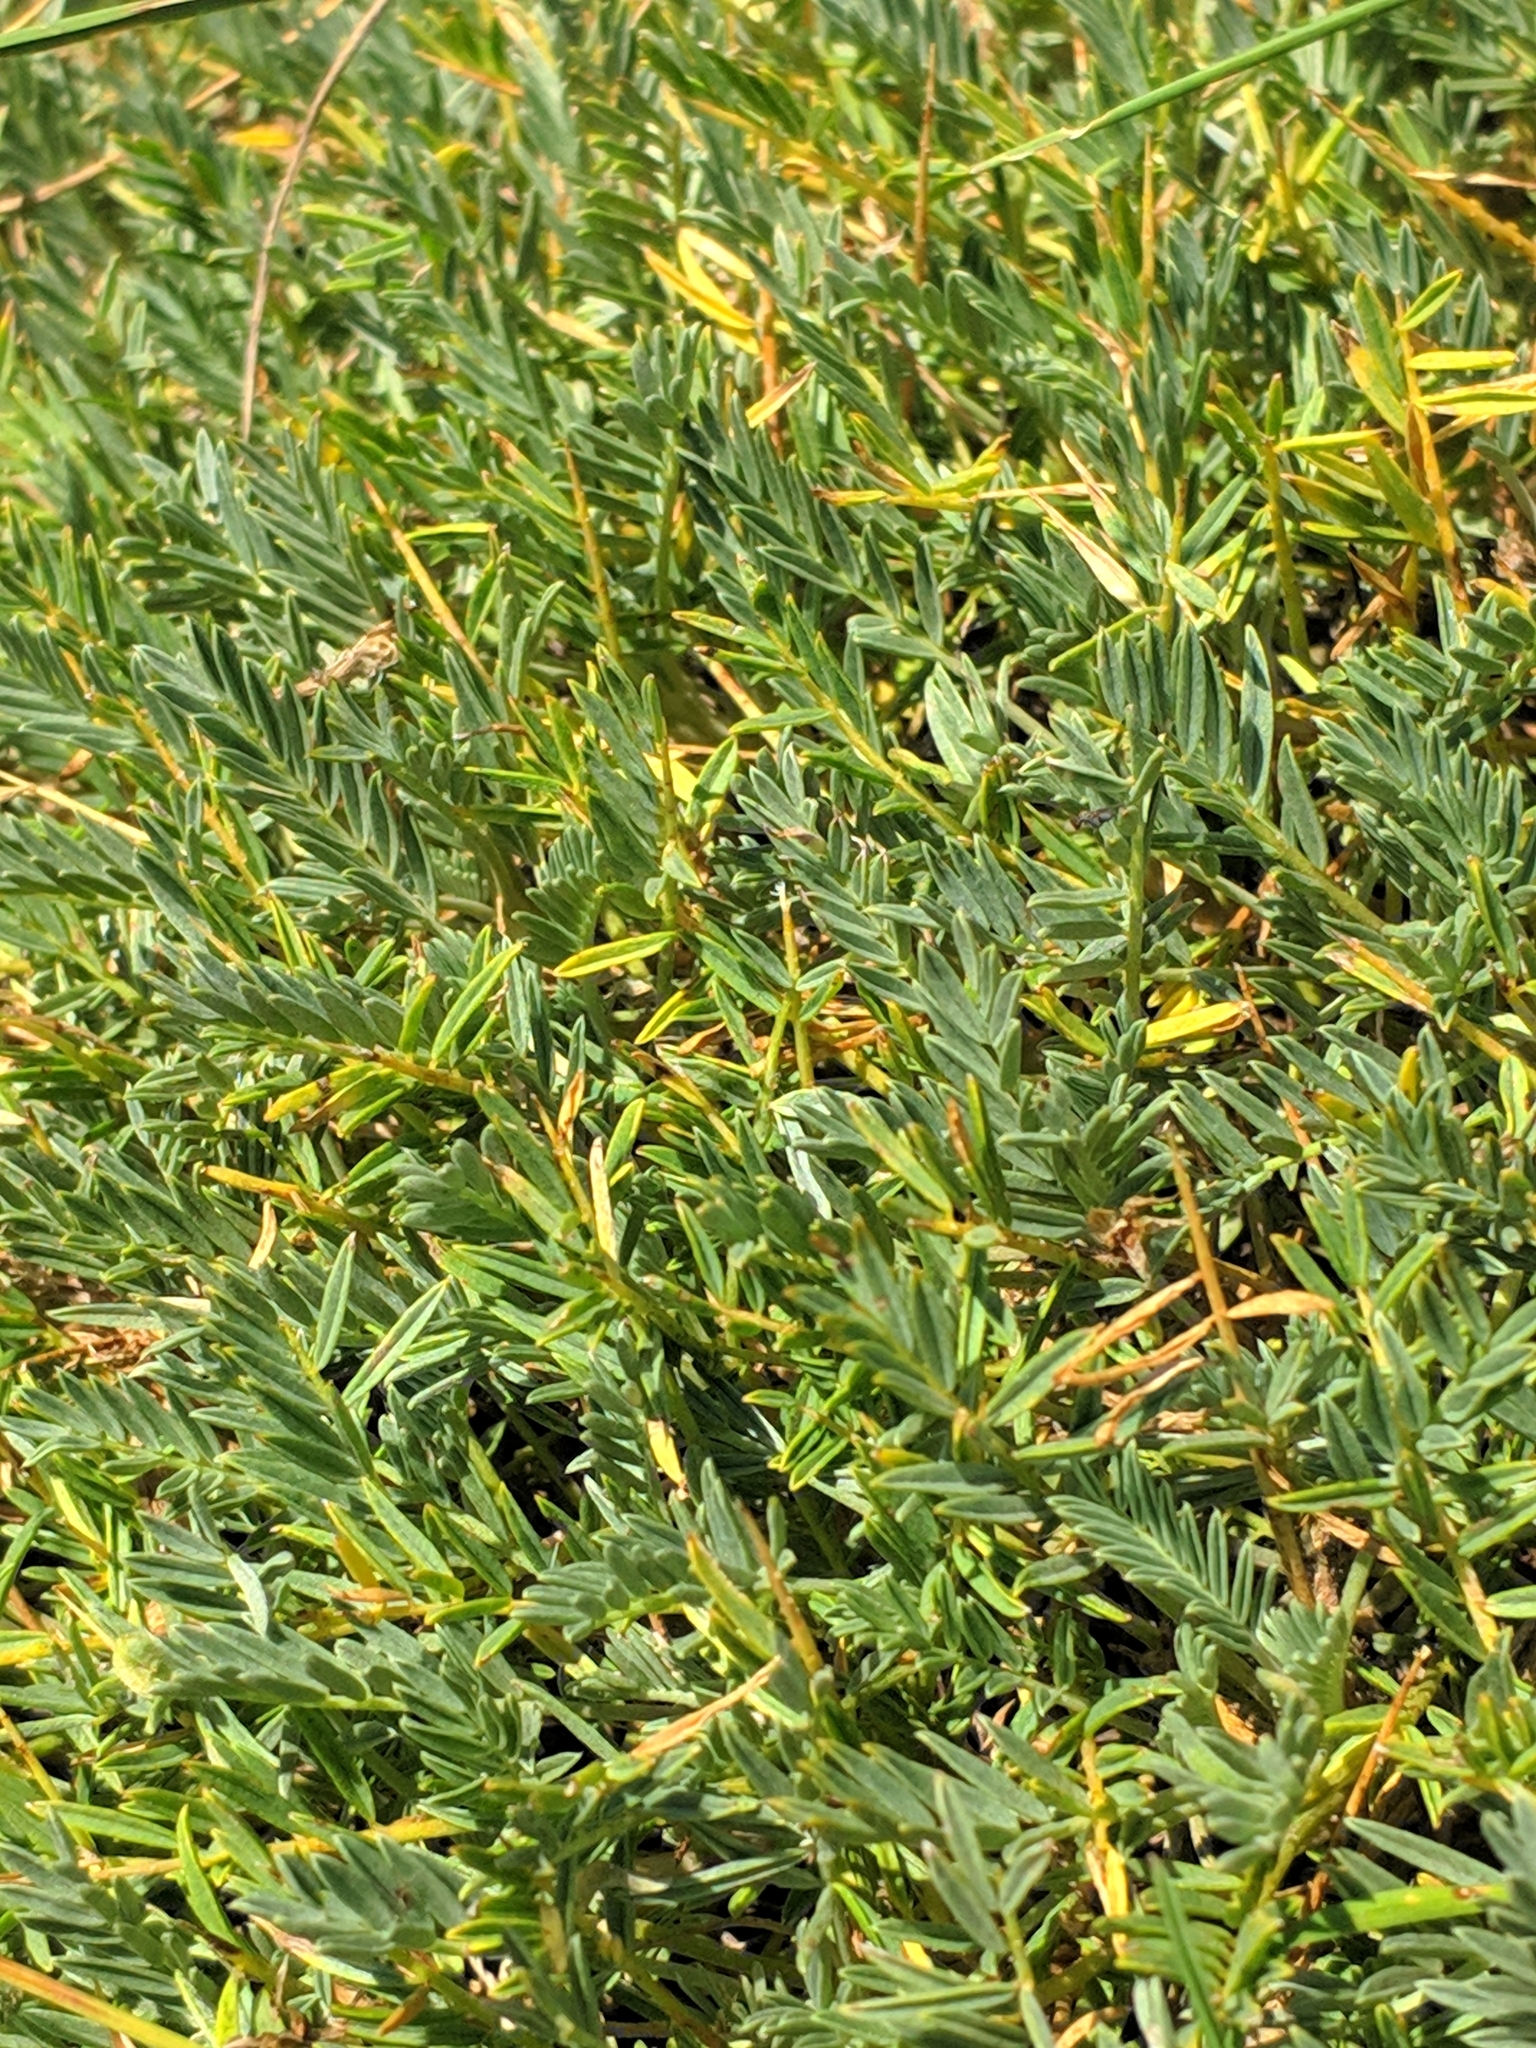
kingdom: Plantae
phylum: Tracheophyta
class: Magnoliopsida
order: Fabales
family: Fabaceae
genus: Astragalus
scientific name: Astragalus angustifolius
